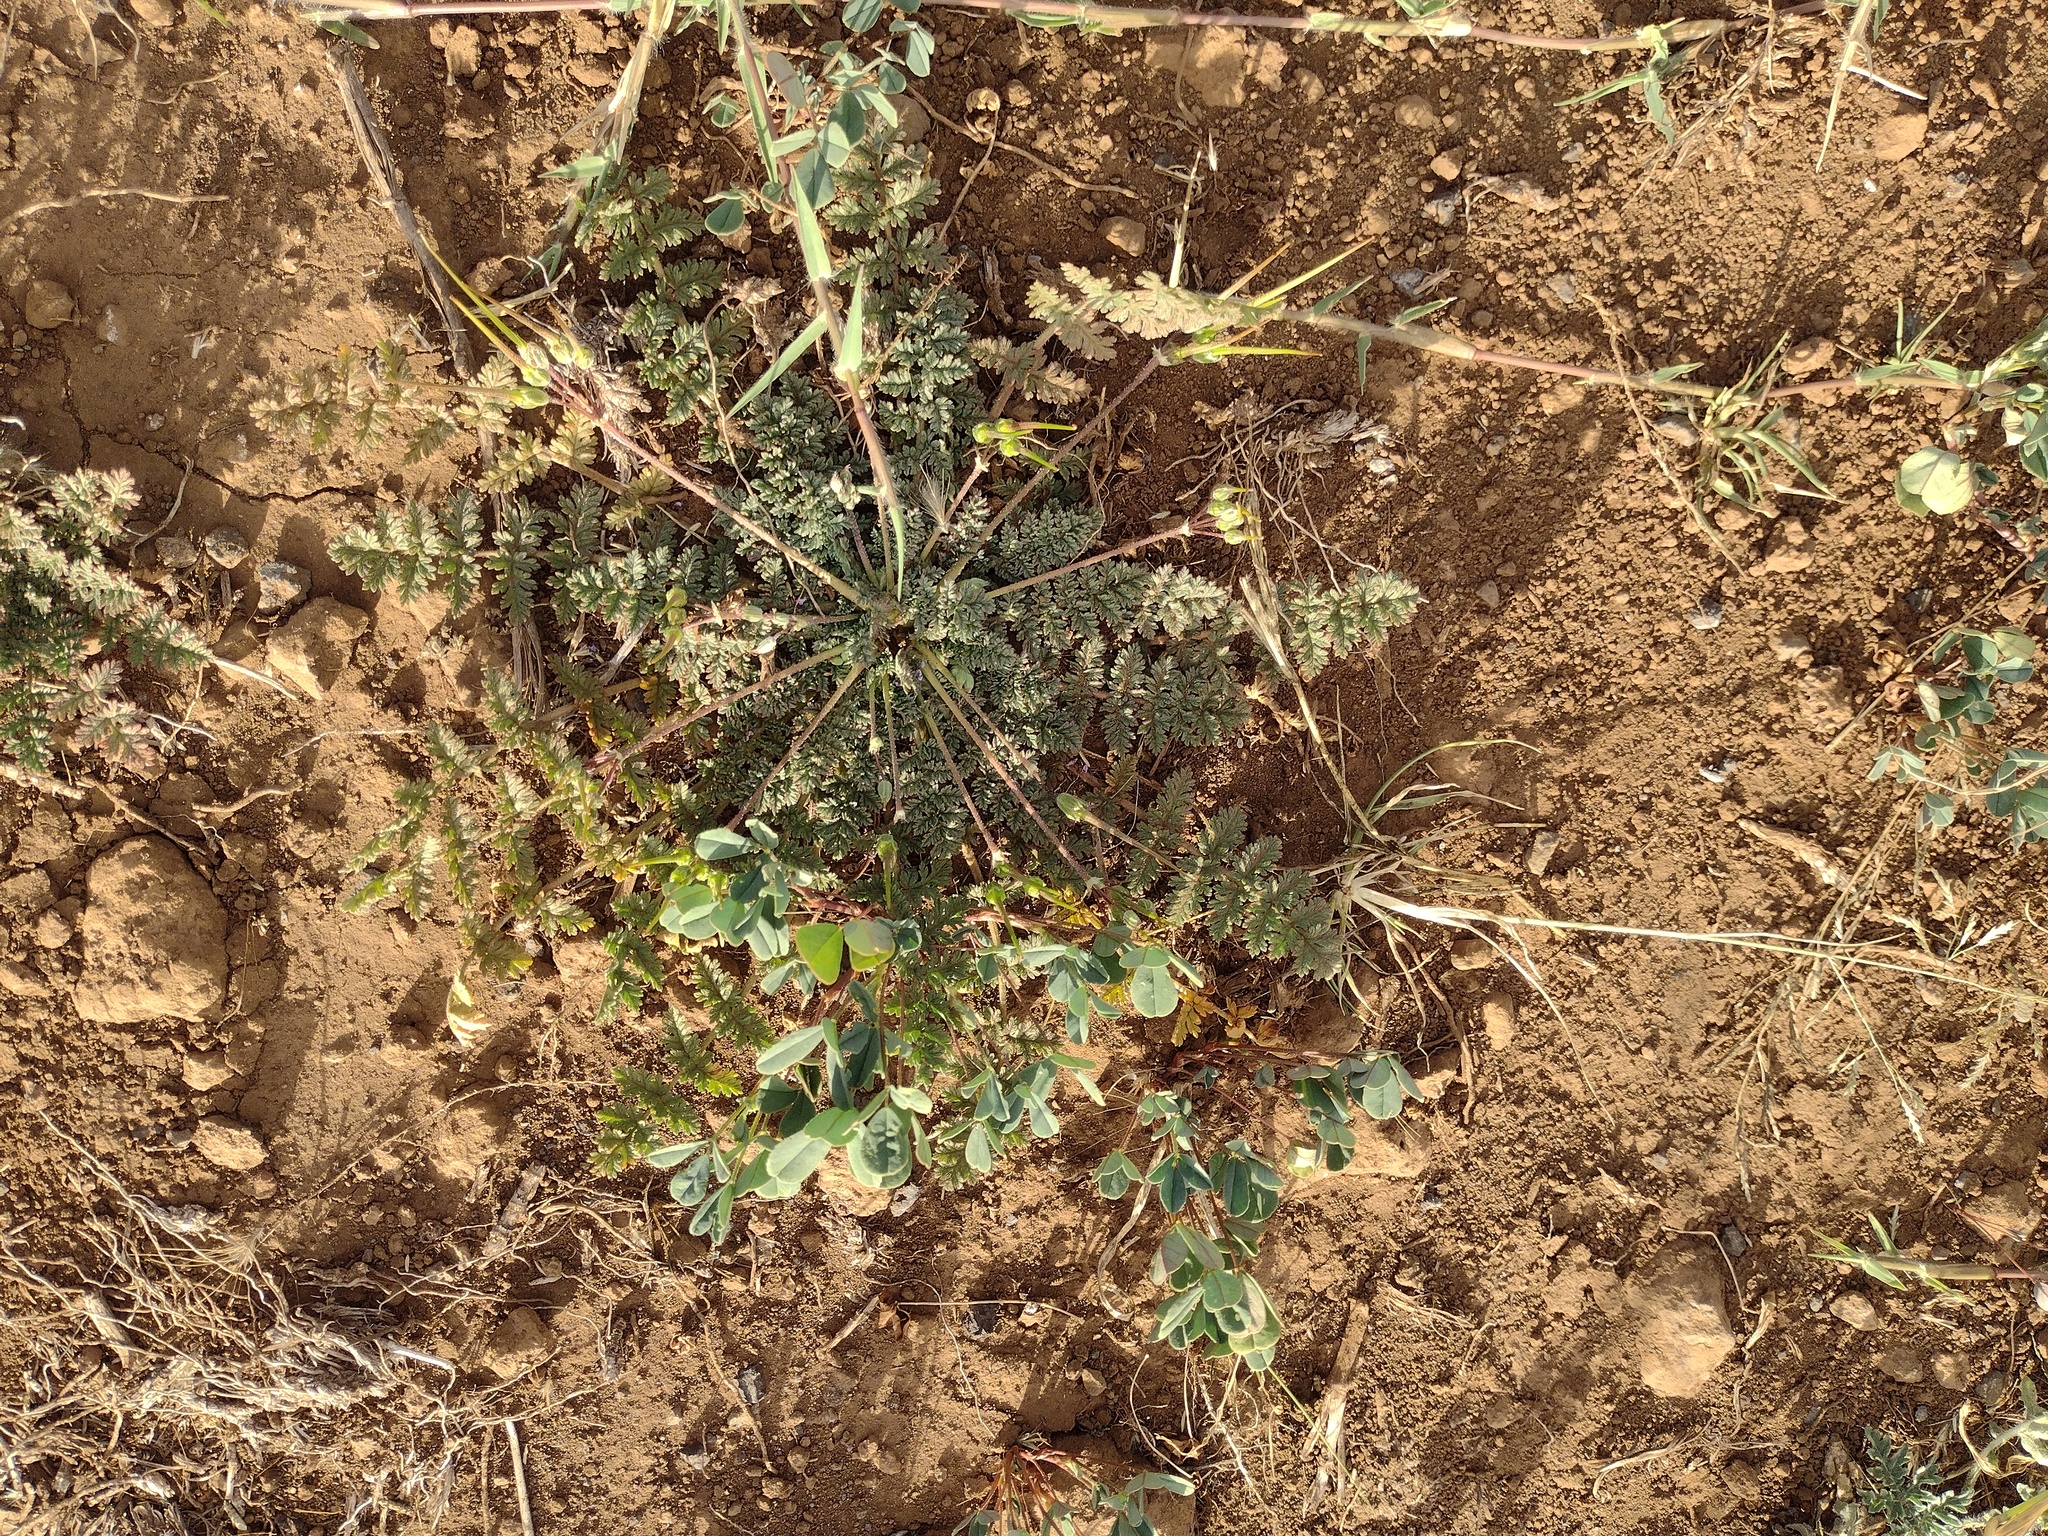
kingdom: Plantae
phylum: Tracheophyta
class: Magnoliopsida
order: Geraniales
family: Geraniaceae
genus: Erodium
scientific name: Erodium cicutarium
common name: Common stork's-bill
